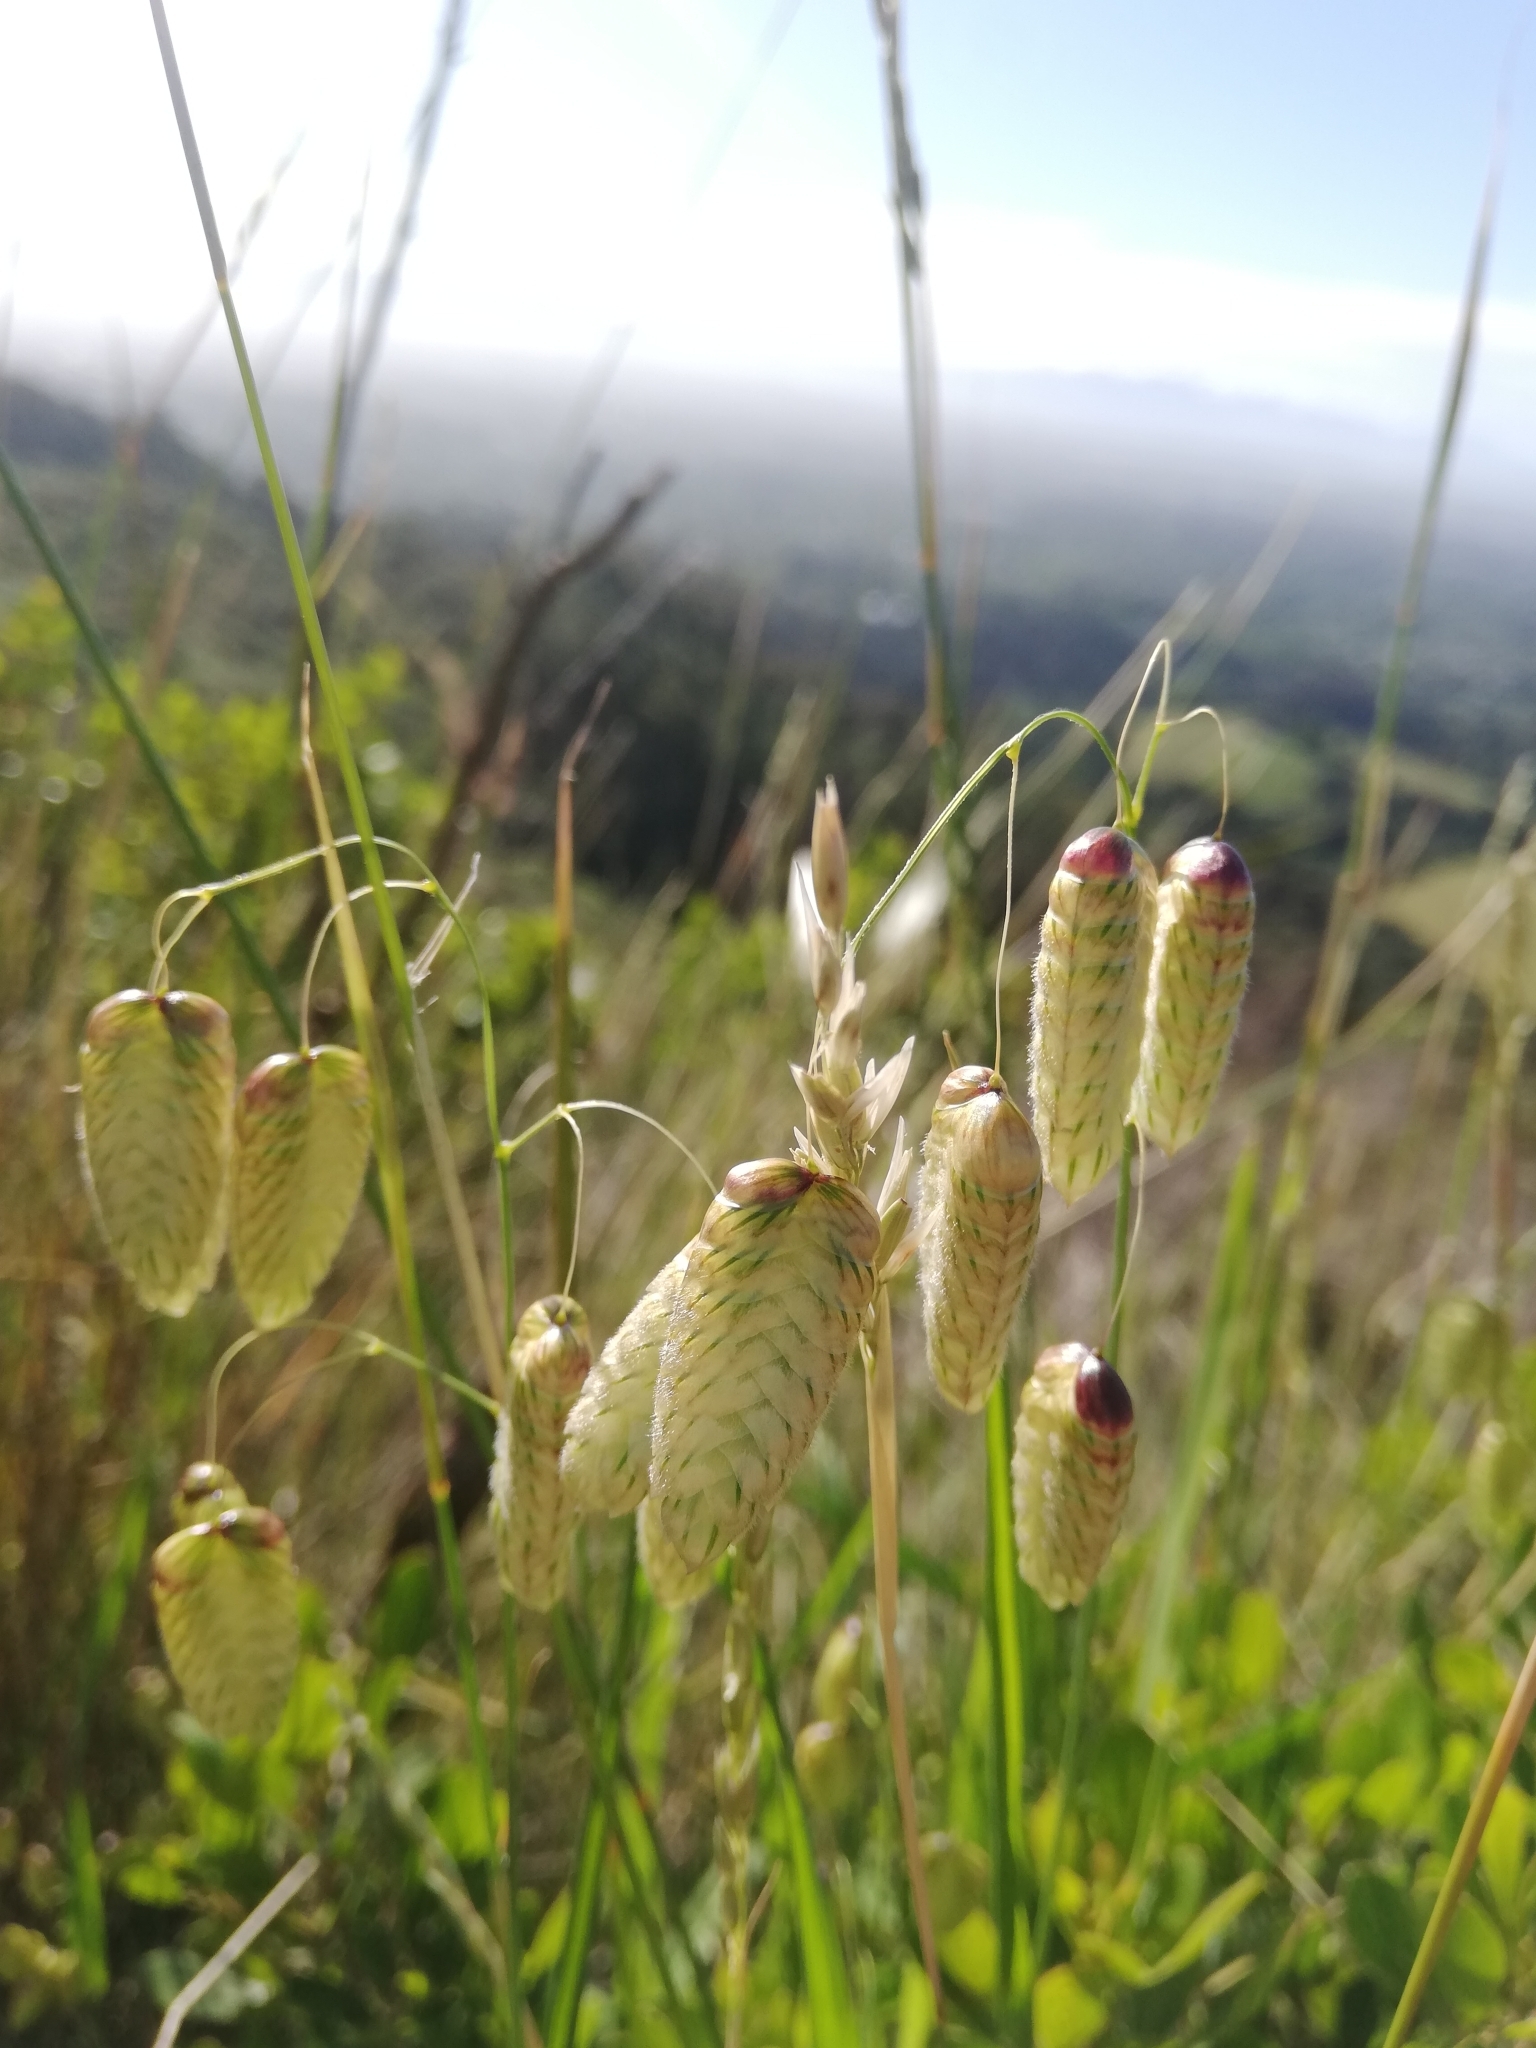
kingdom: Plantae
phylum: Tracheophyta
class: Liliopsida
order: Poales
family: Poaceae
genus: Briza
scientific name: Briza maxima
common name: Big quakinggrass
